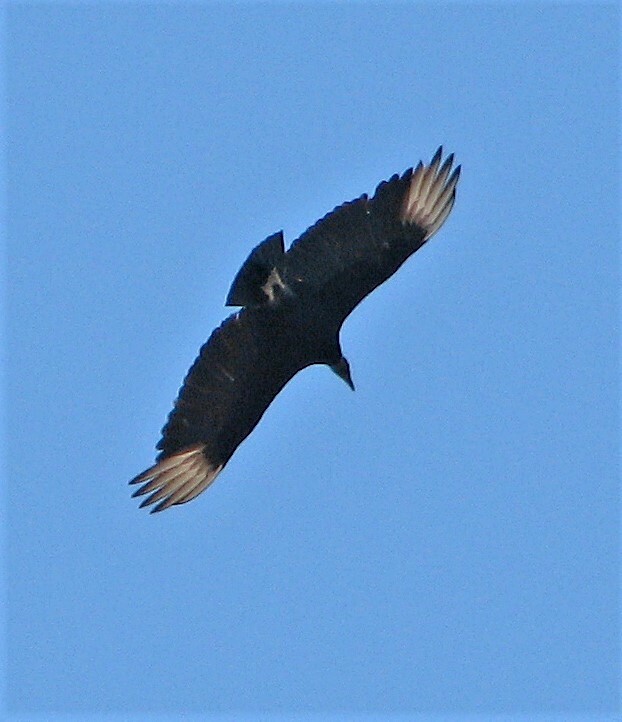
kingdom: Animalia
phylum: Chordata
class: Aves
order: Accipitriformes
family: Cathartidae
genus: Coragyps
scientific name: Coragyps atratus
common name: Black vulture
